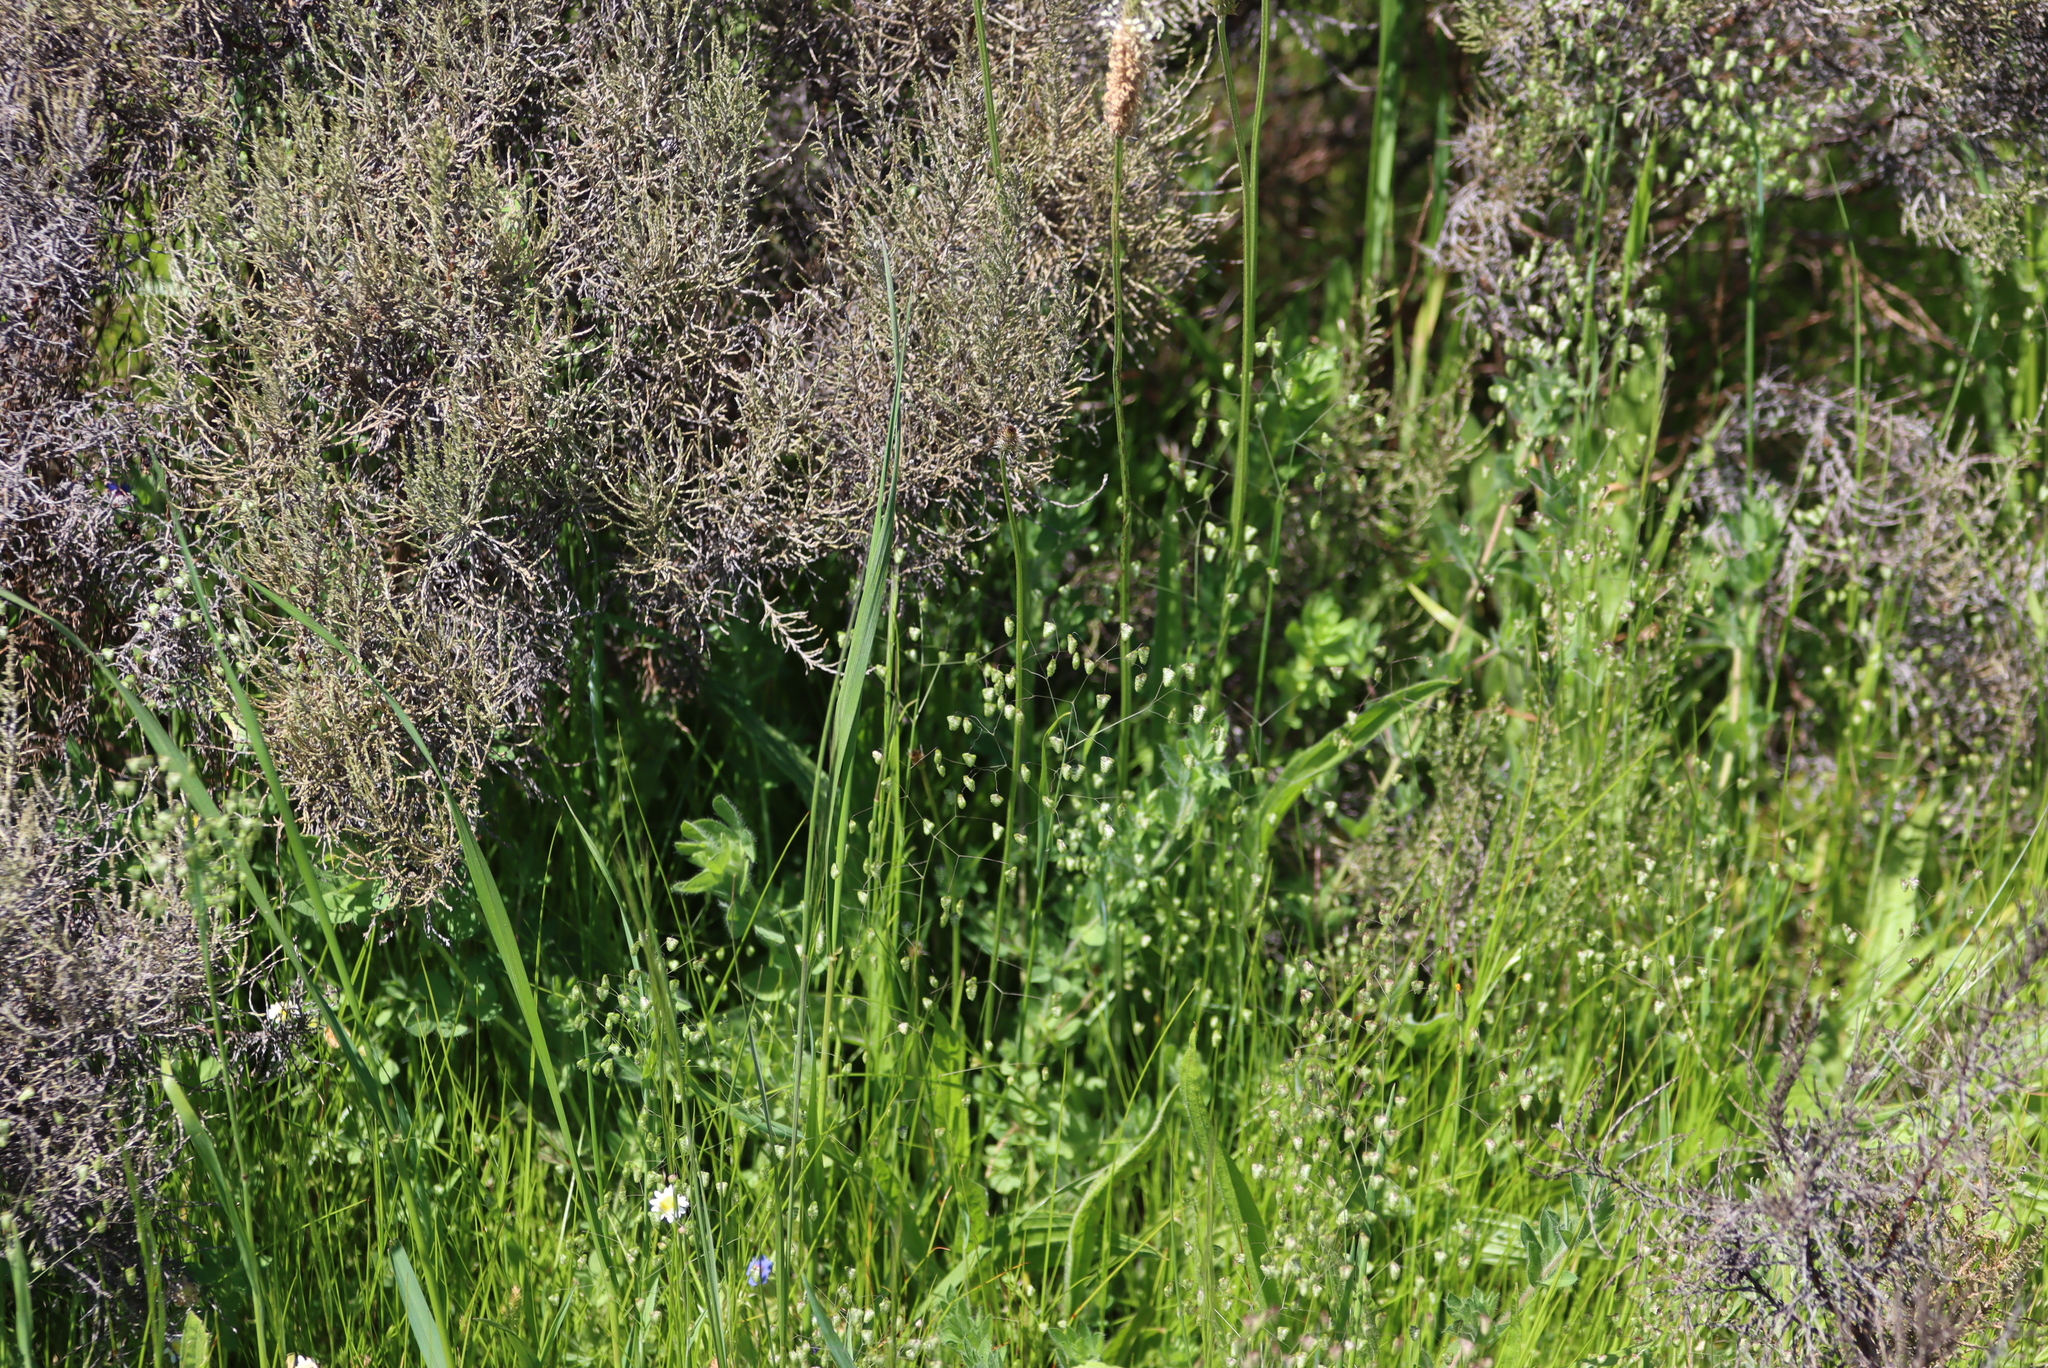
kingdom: Plantae
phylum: Tracheophyta
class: Liliopsida
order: Poales
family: Poaceae
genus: Briza
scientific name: Briza minor
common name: Lesser quaking-grass
